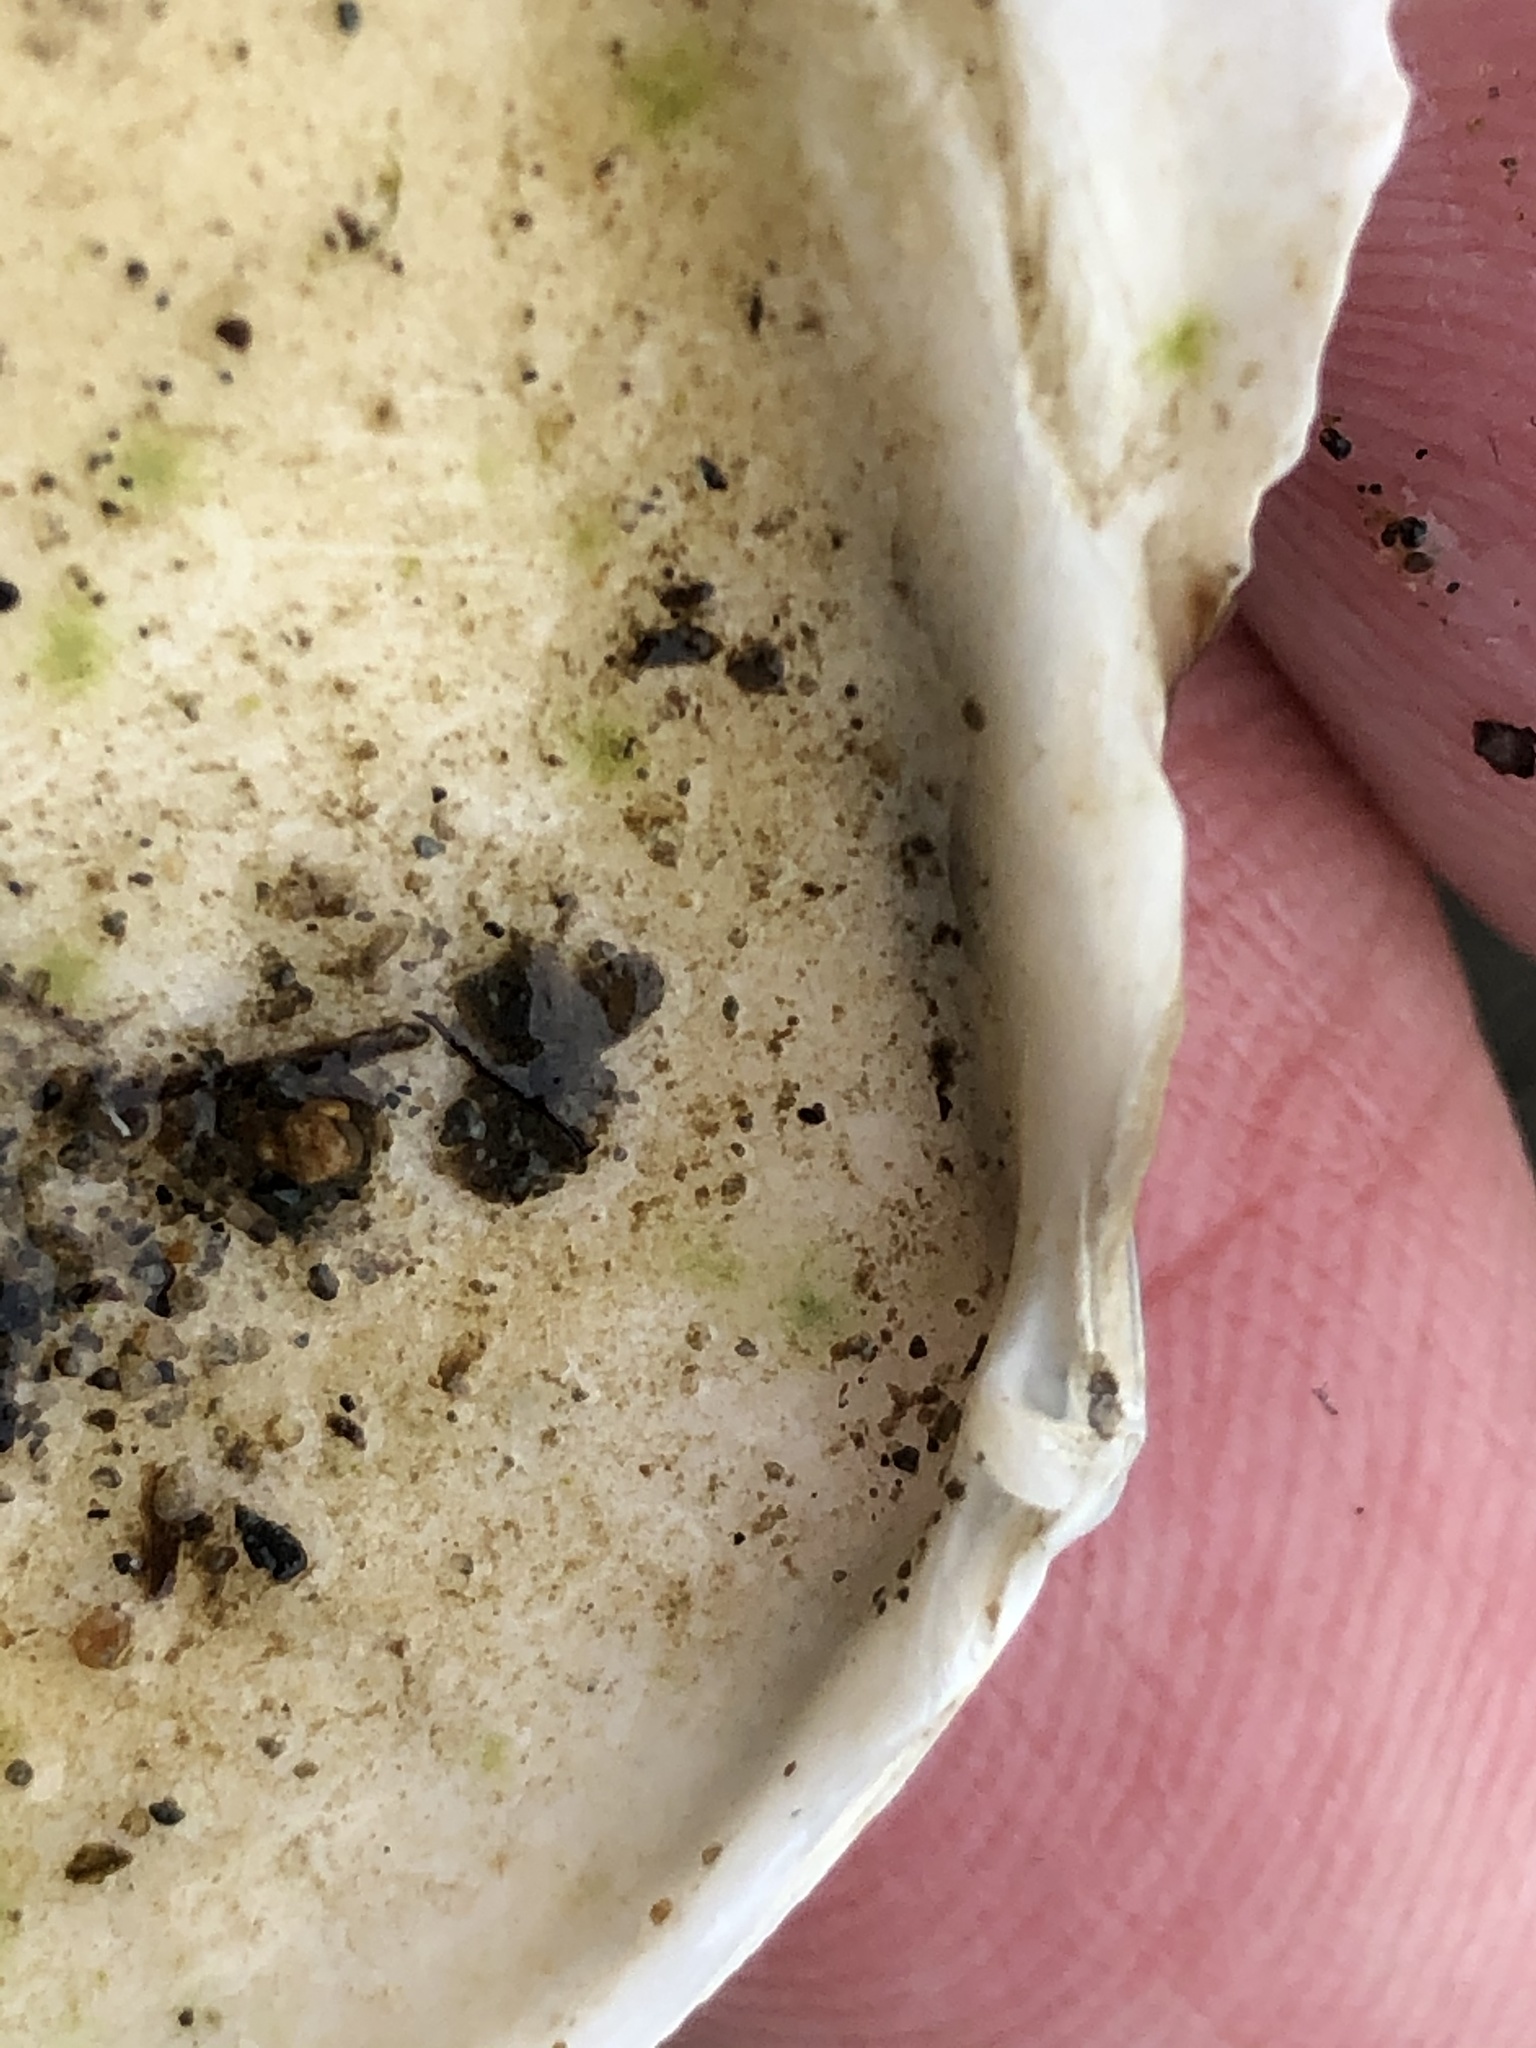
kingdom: Animalia
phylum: Mollusca
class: Bivalvia
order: Cardiida
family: Tellinidae
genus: Rexithaerus
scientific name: Rexithaerus secta
